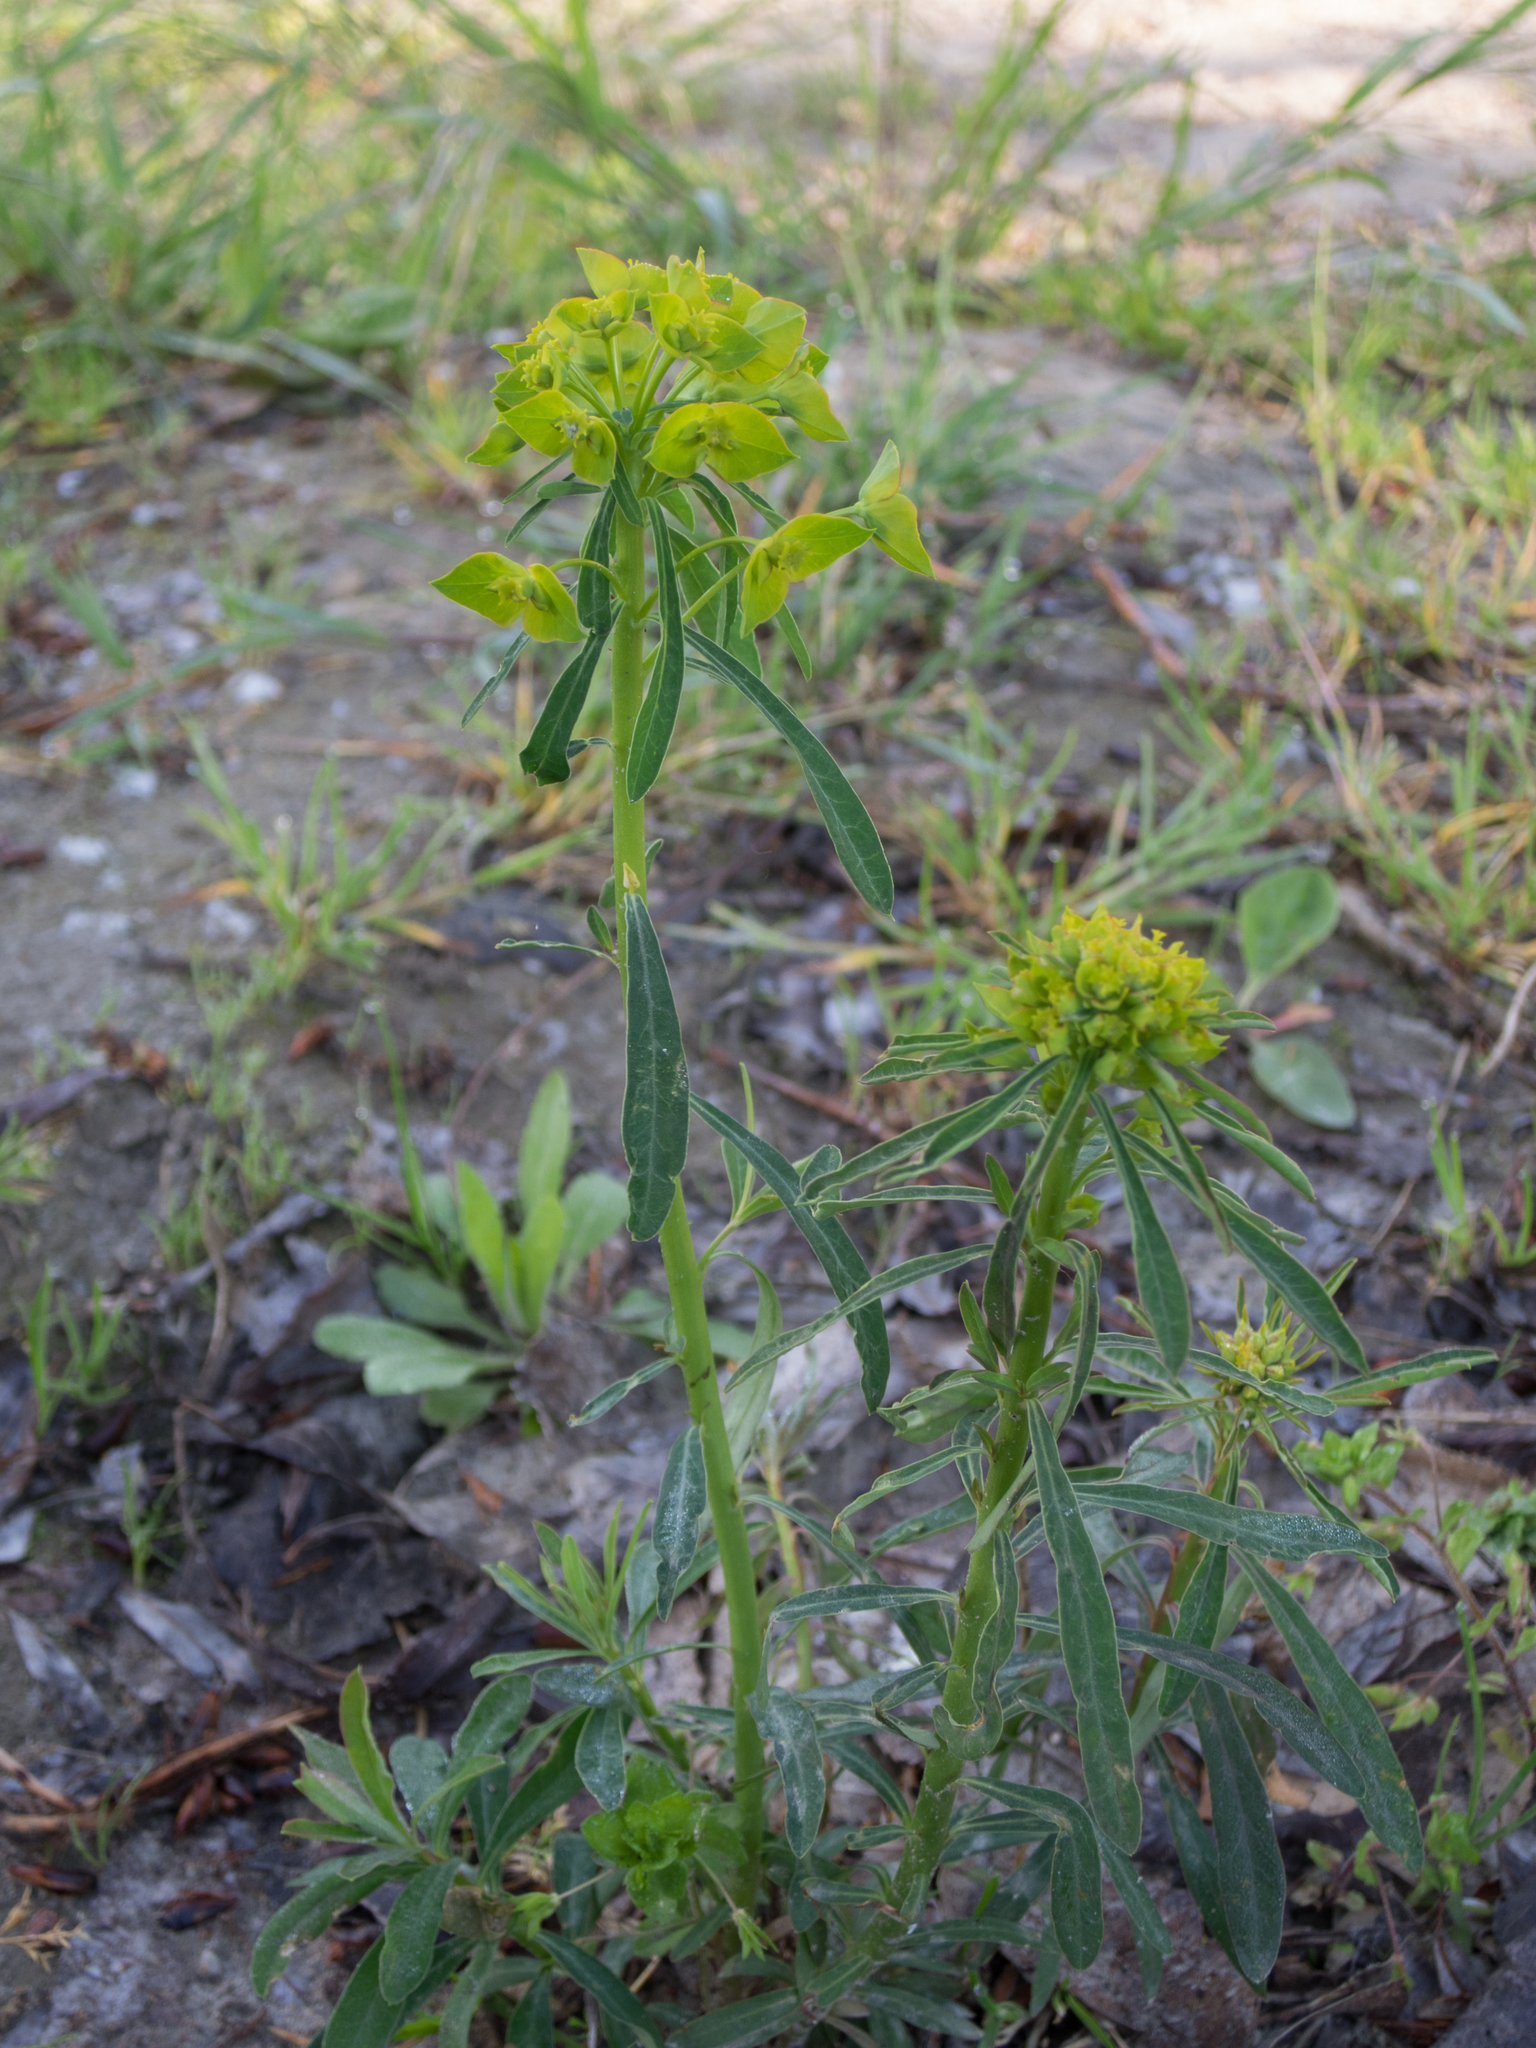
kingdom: Plantae
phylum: Tracheophyta
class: Magnoliopsida
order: Malpighiales
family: Euphorbiaceae
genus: Euphorbia
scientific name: Euphorbia esula
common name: Leafy spurge
